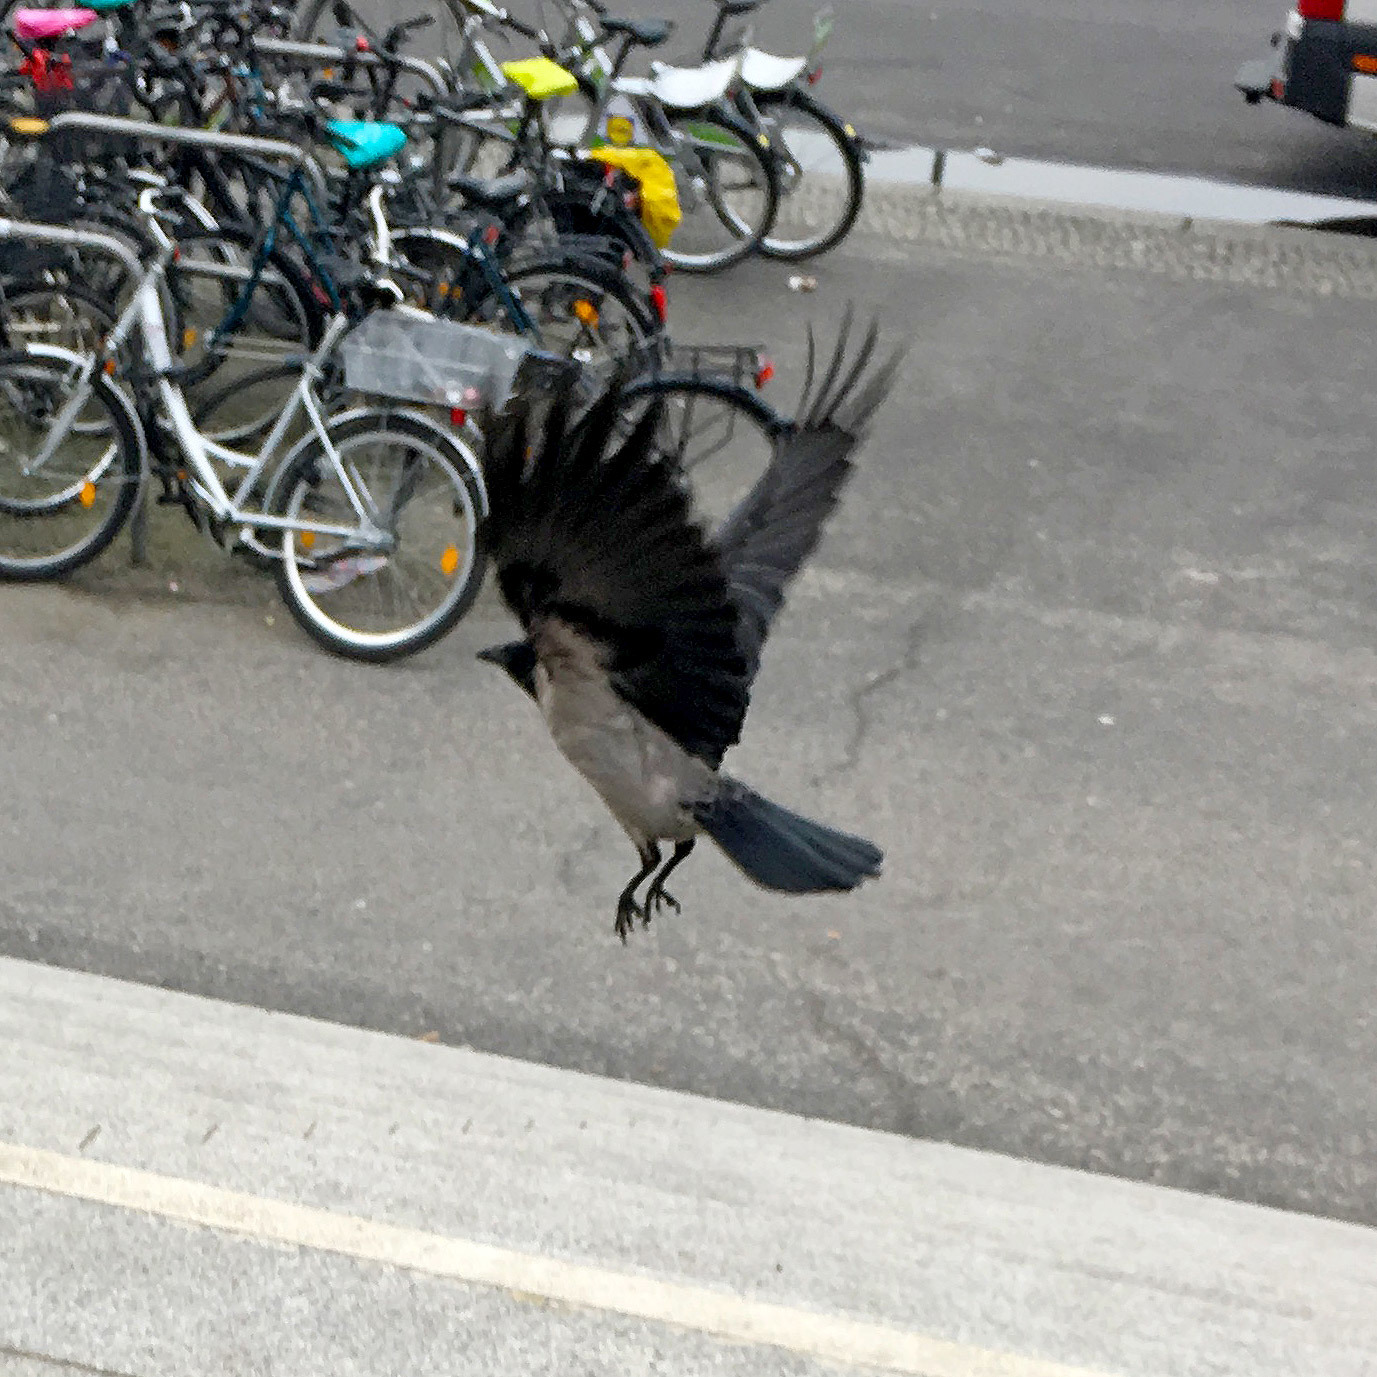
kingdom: Animalia
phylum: Chordata
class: Aves
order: Passeriformes
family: Corvidae
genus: Corvus
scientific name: Corvus cornix
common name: Hooded crow
